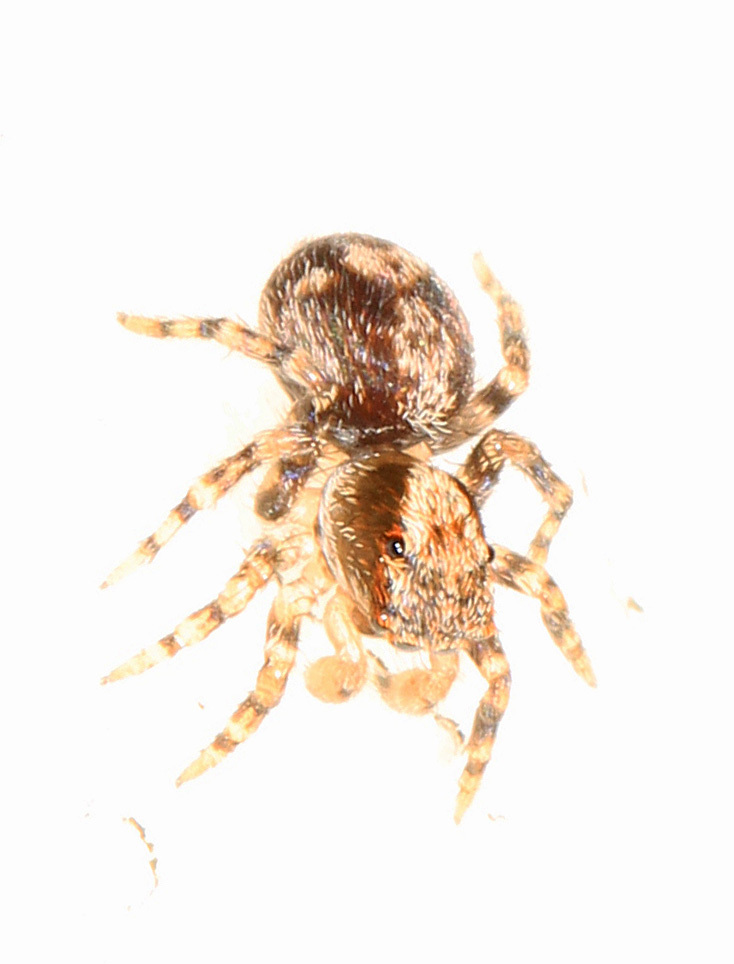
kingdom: Animalia
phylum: Arthropoda
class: Arachnida
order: Araneae
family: Salticidae
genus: Naphrys
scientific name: Naphrys pulex
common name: Flea jumping spider
